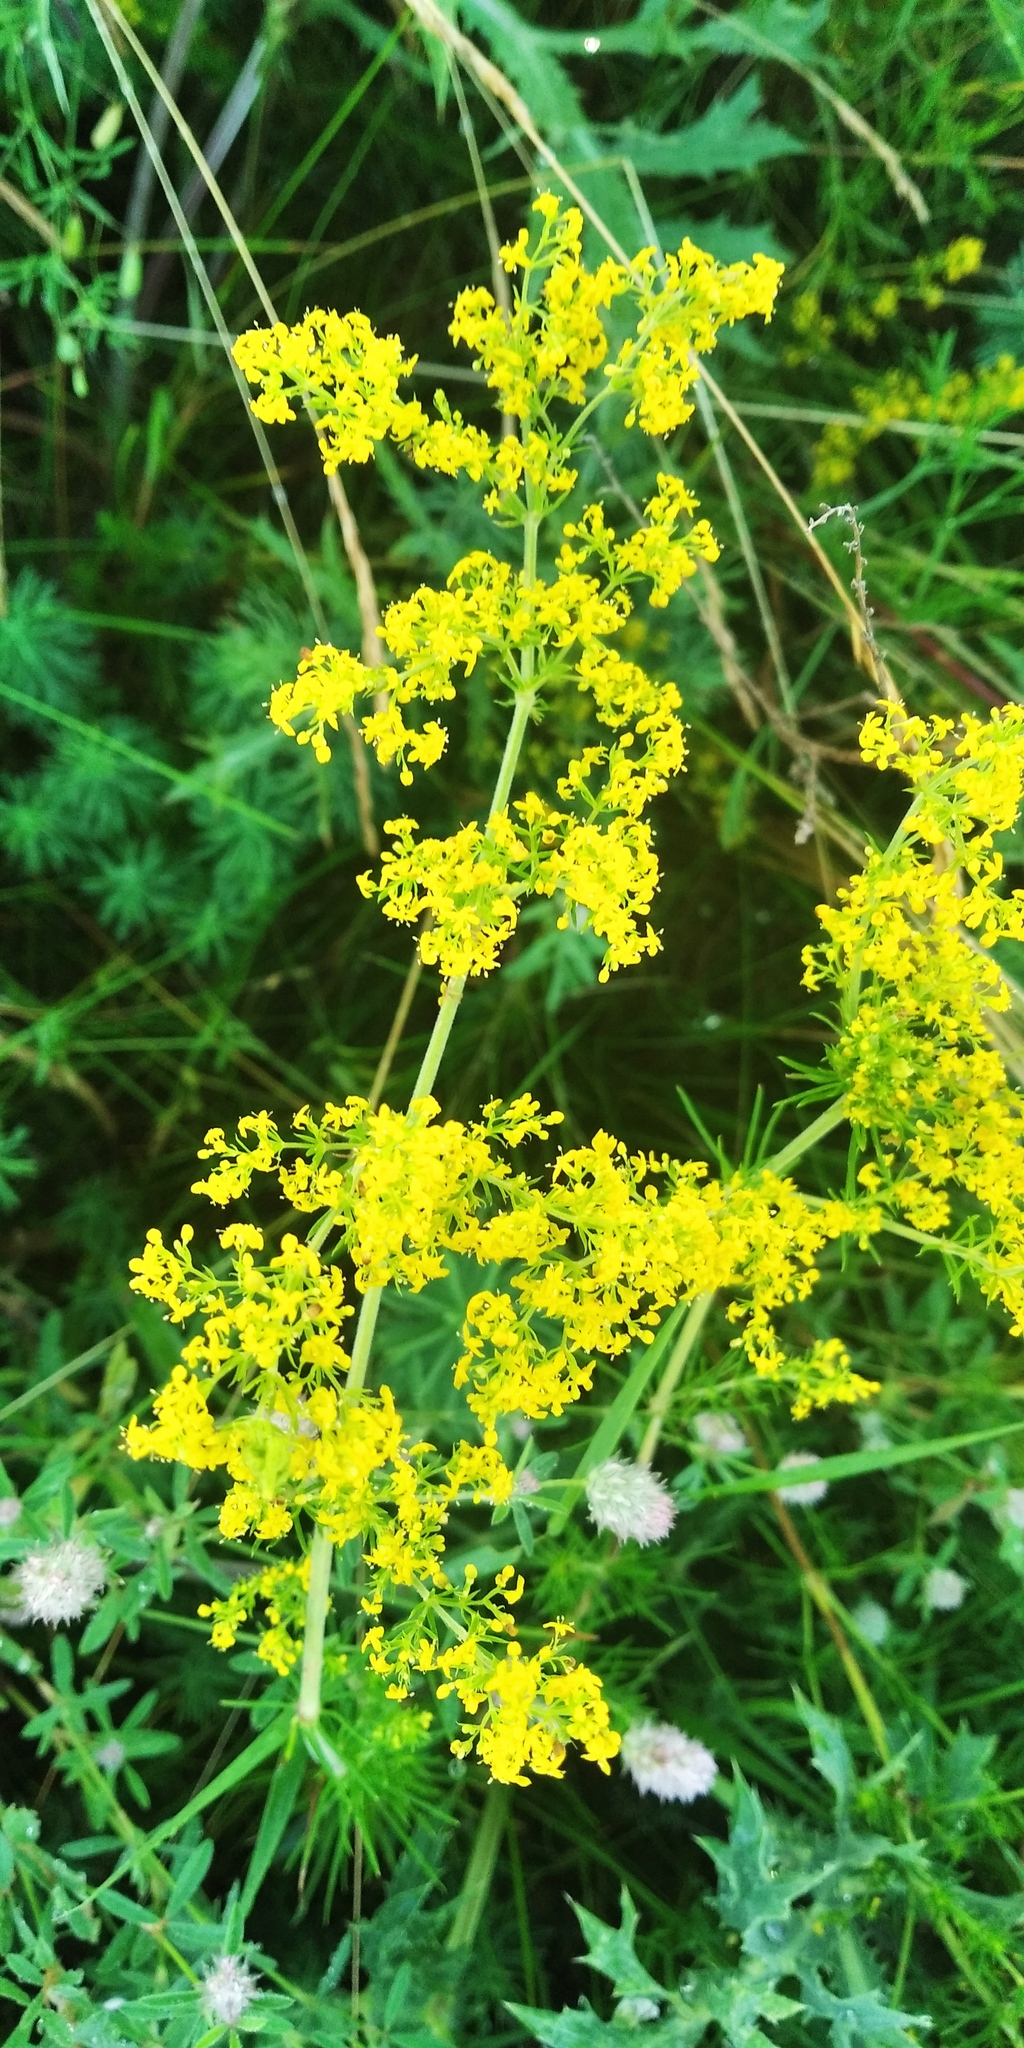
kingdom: Plantae
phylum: Tracheophyta
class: Magnoliopsida
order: Gentianales
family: Rubiaceae
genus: Galium
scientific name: Galium verum
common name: Lady's bedstraw
